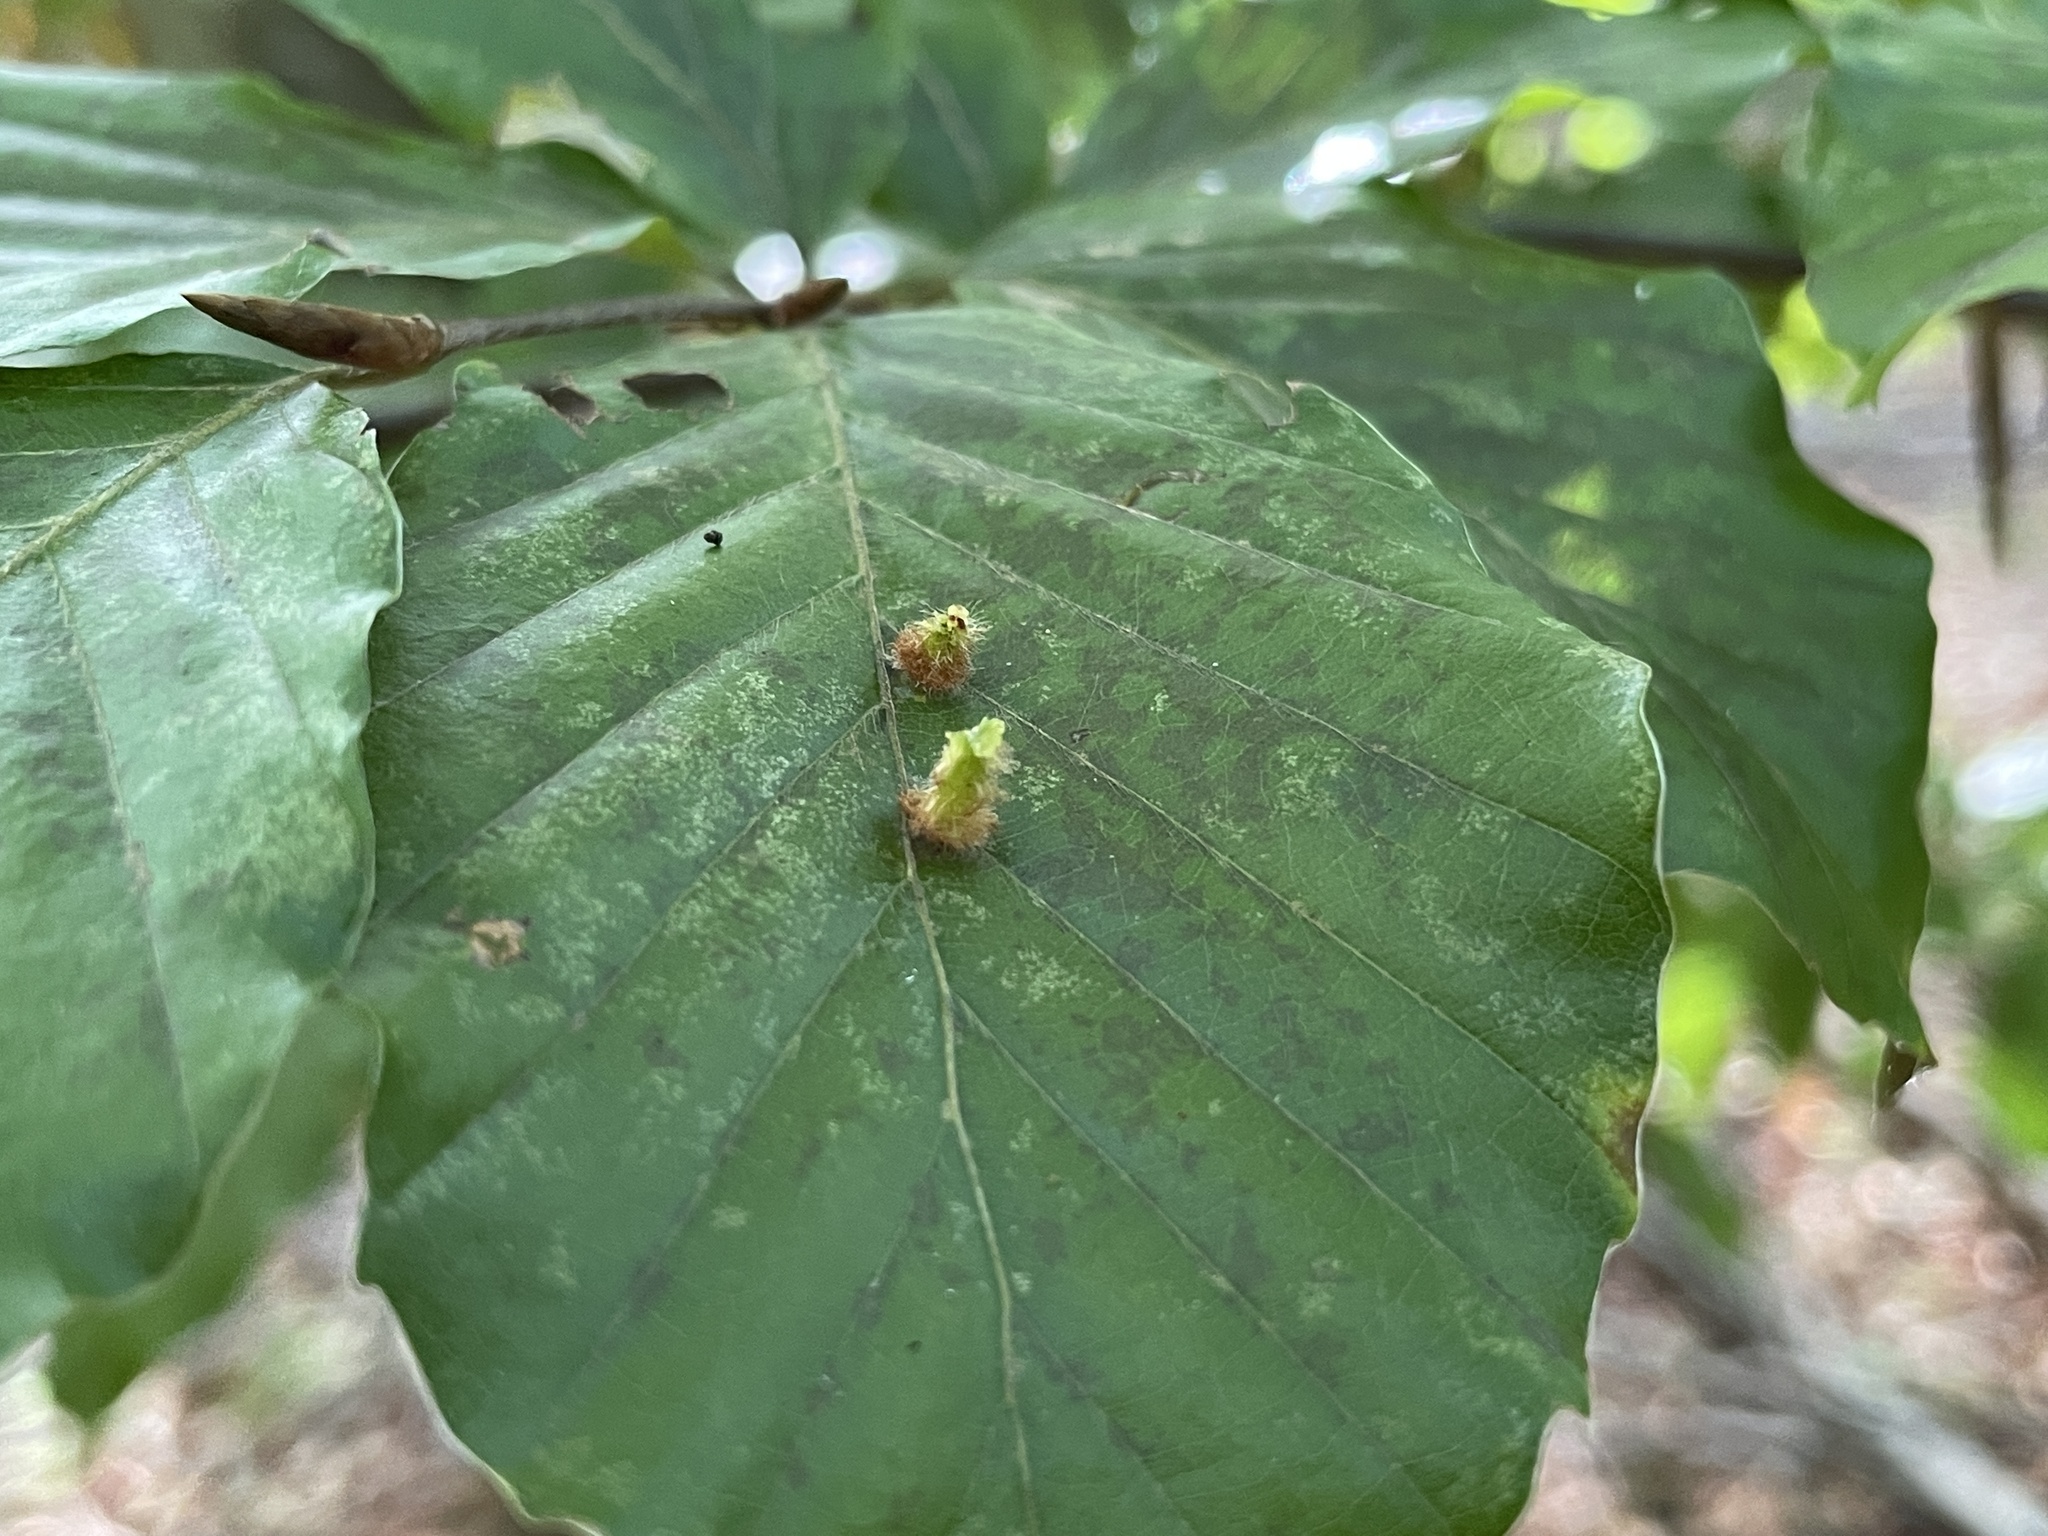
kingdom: Animalia
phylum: Arthropoda
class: Insecta
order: Diptera
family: Cecidomyiidae
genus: Hartigiola
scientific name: Hartigiola annulipes
